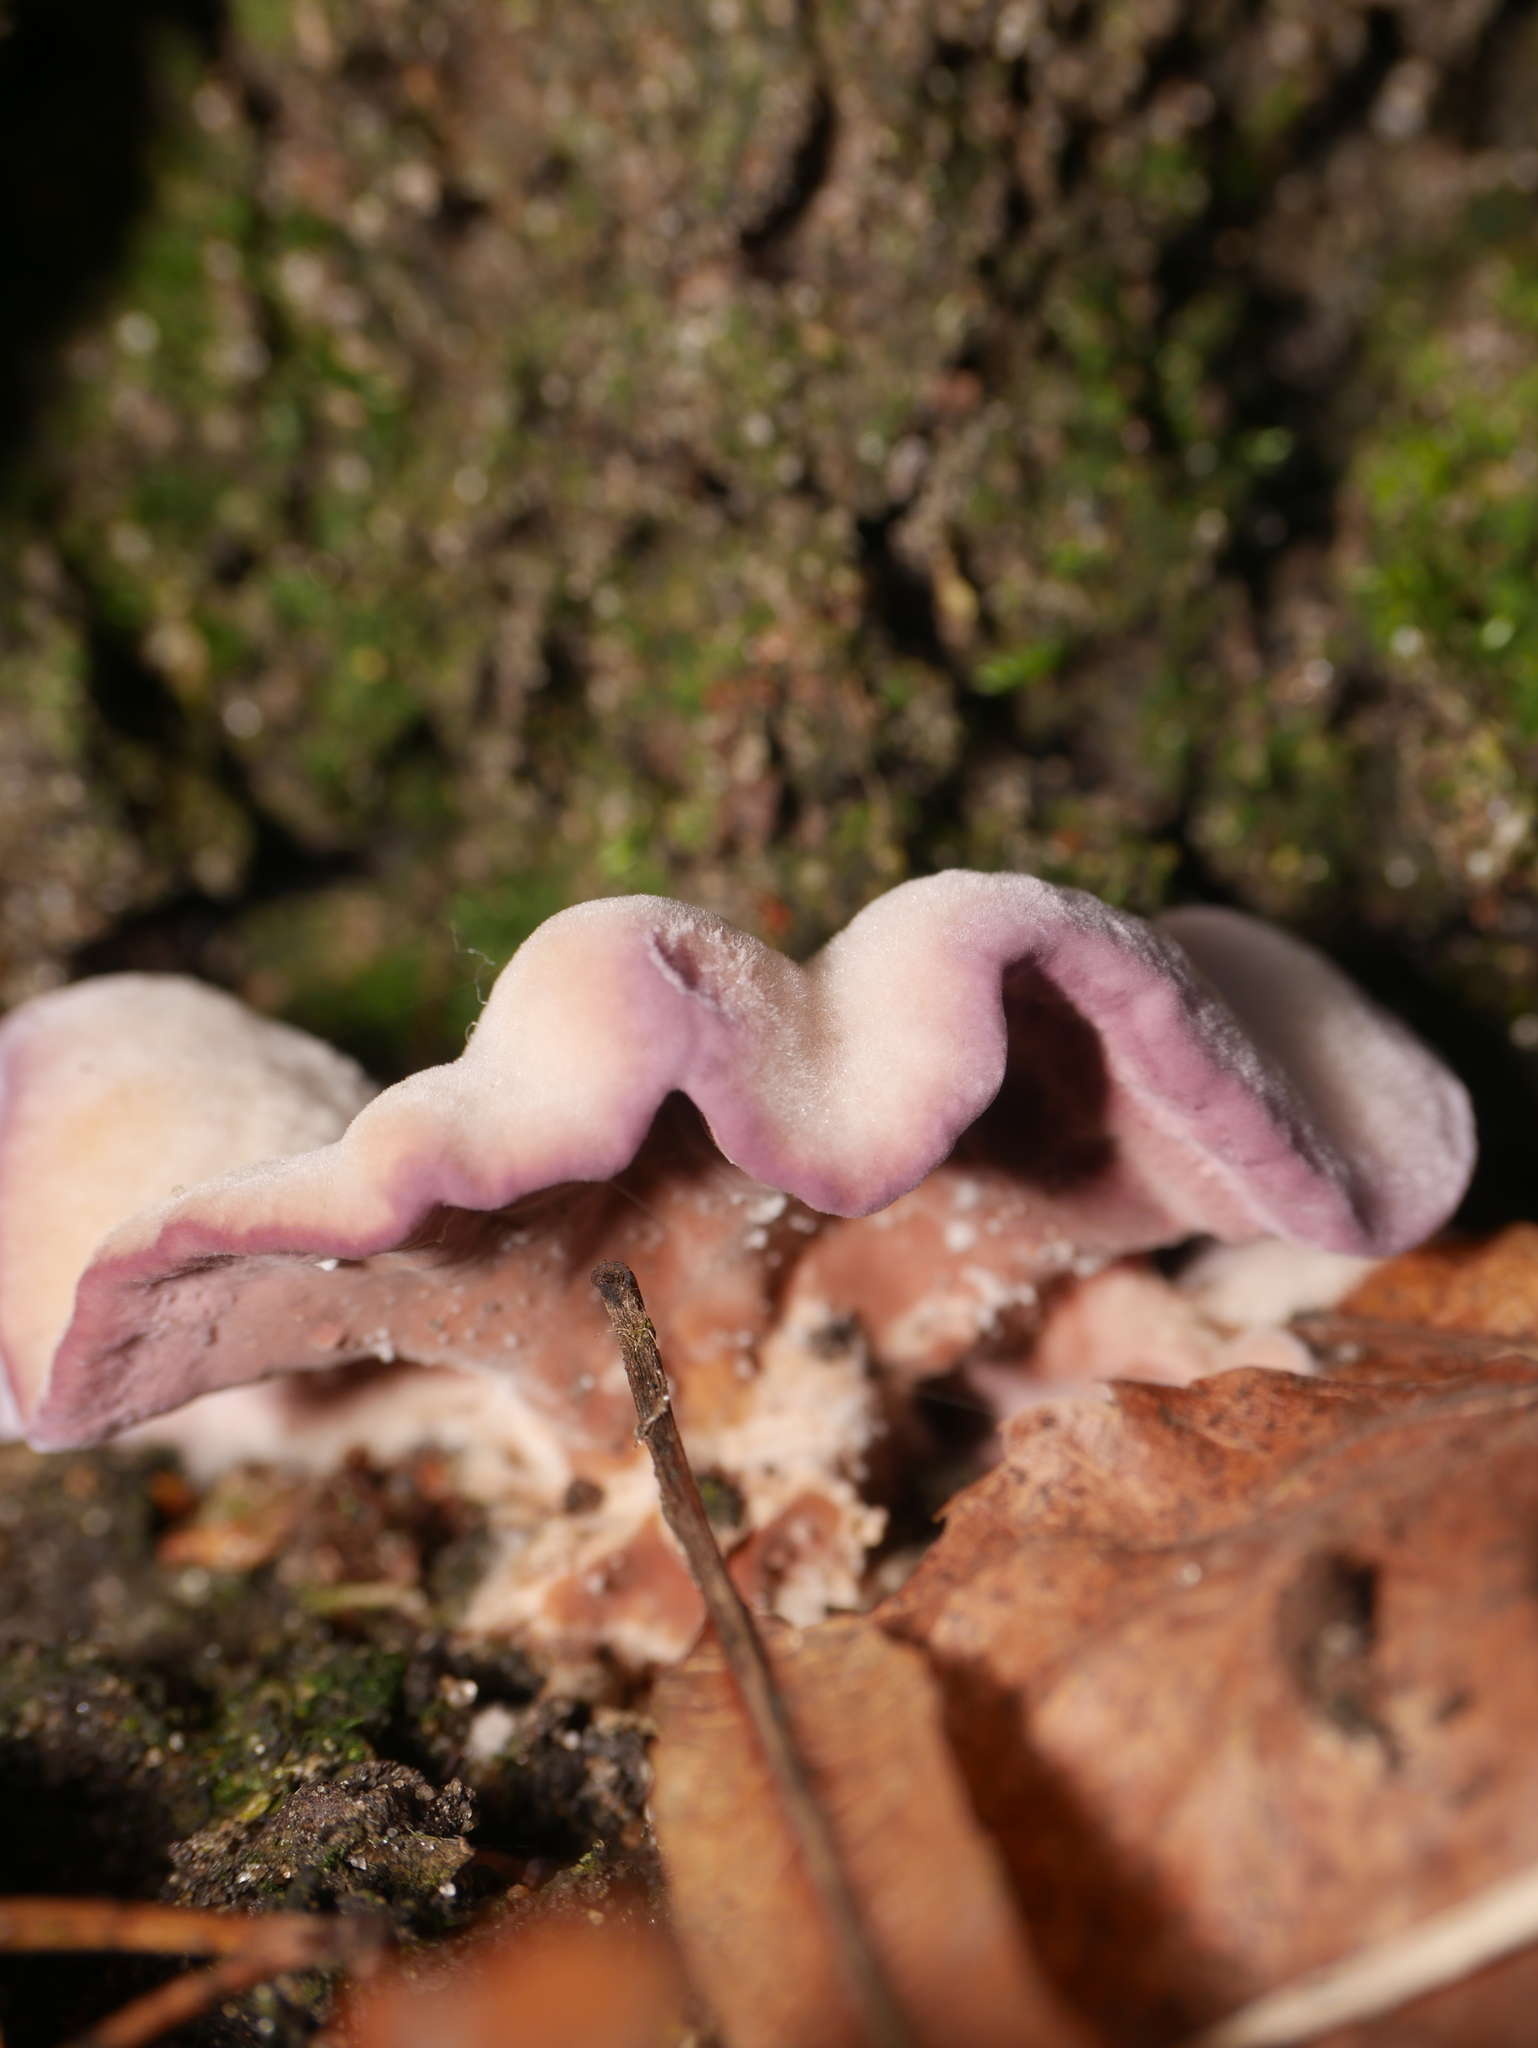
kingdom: Fungi
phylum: Basidiomycota
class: Agaricomycetes
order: Agaricales
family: Cyphellaceae
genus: Chondrostereum
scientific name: Chondrostereum purpureum
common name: Silver leaf disease
